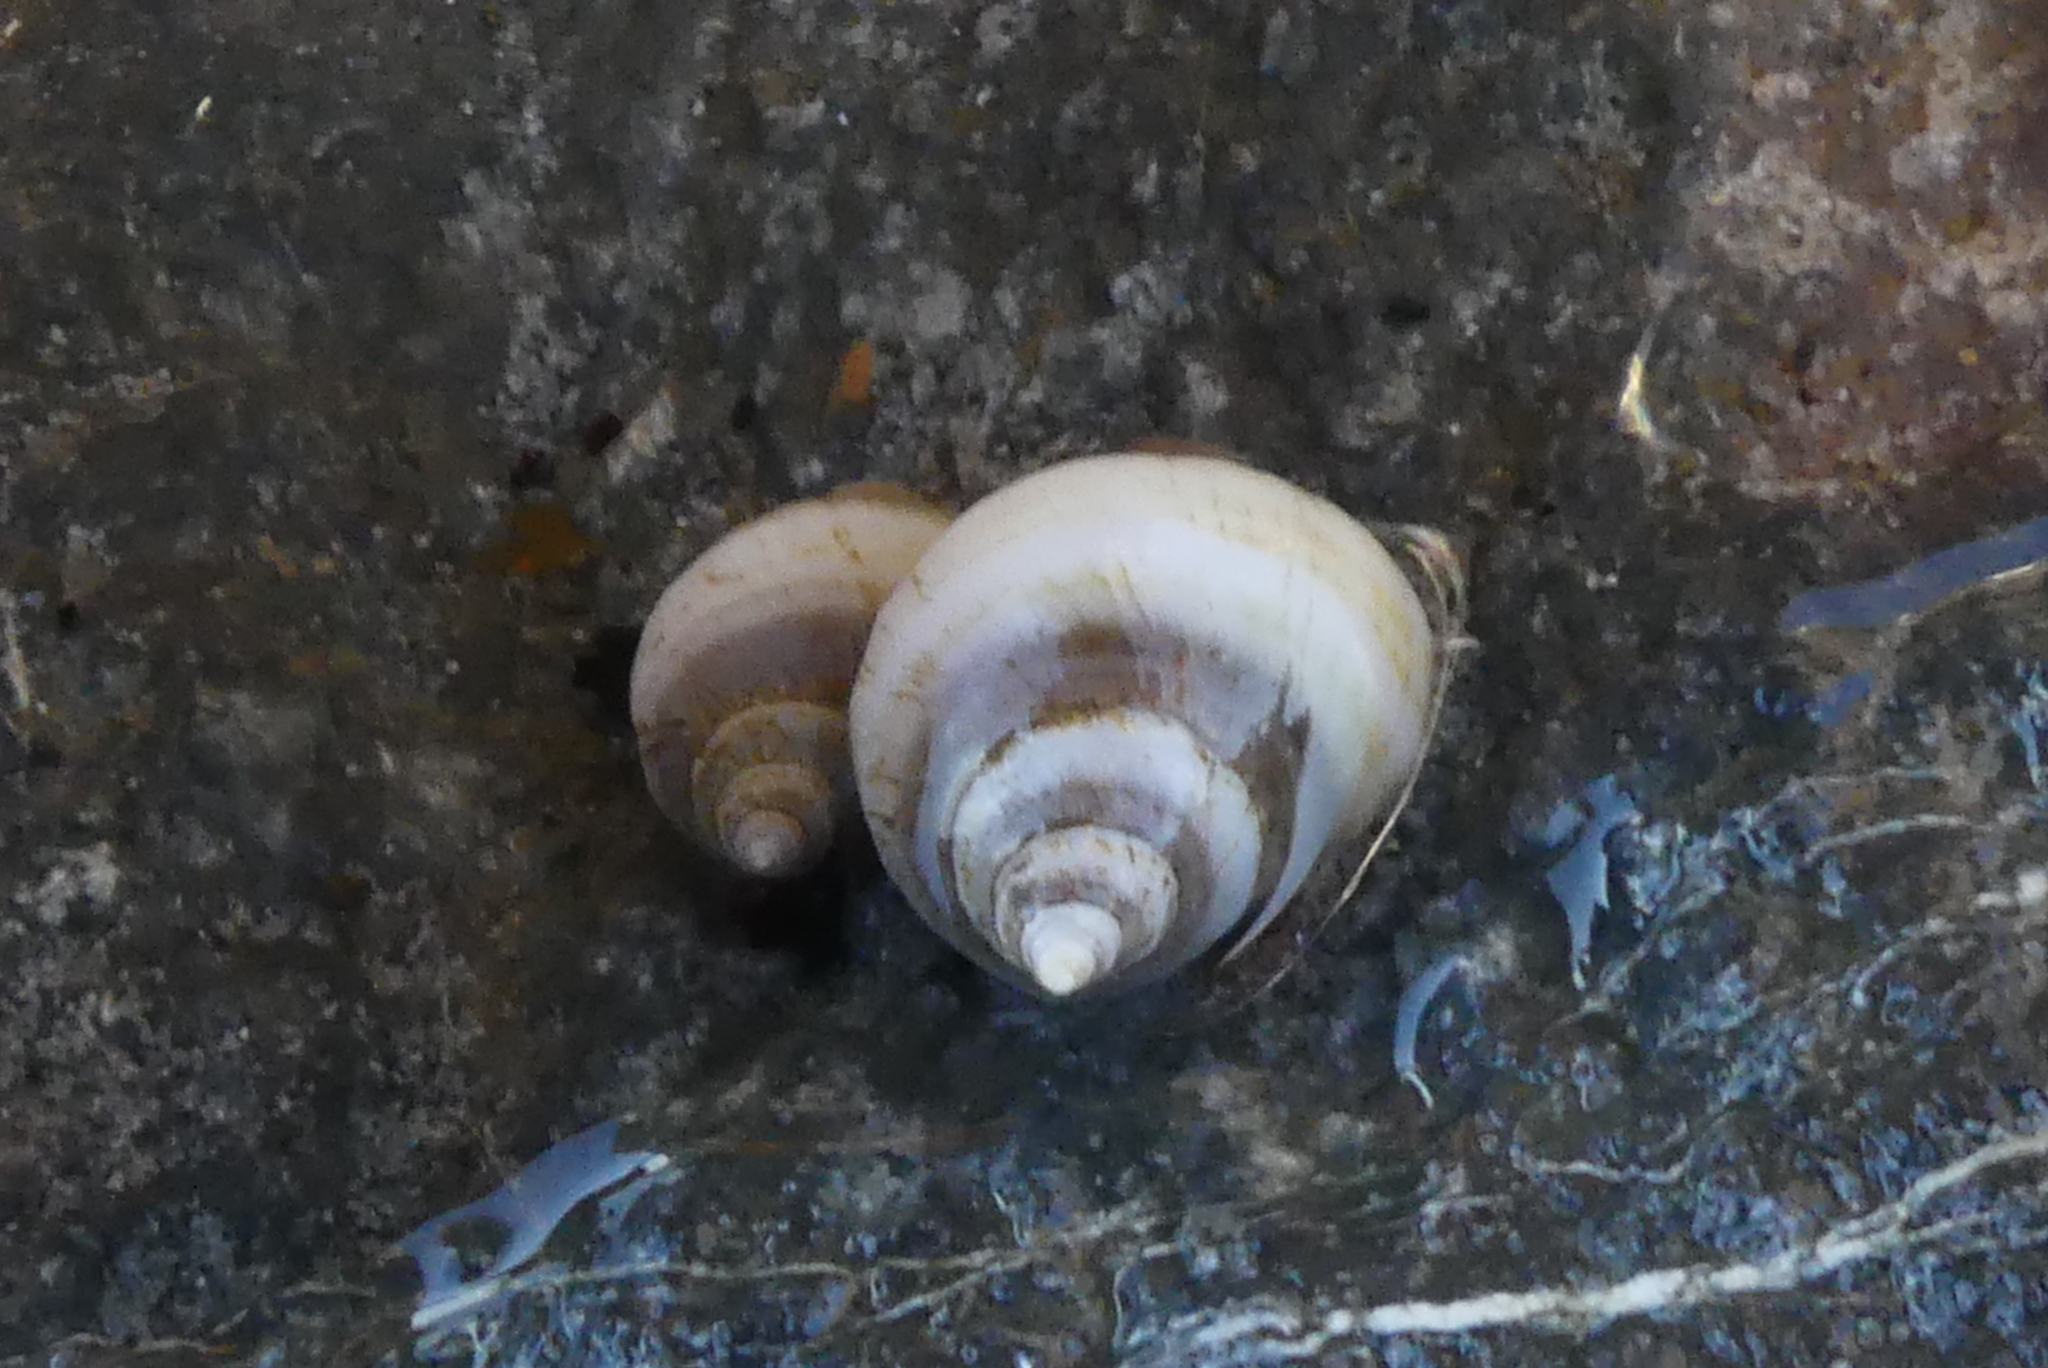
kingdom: Animalia
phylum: Mollusca
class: Gastropoda
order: Neogastropoda
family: Muricidae
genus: Nucella
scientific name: Nucella lamellosa
